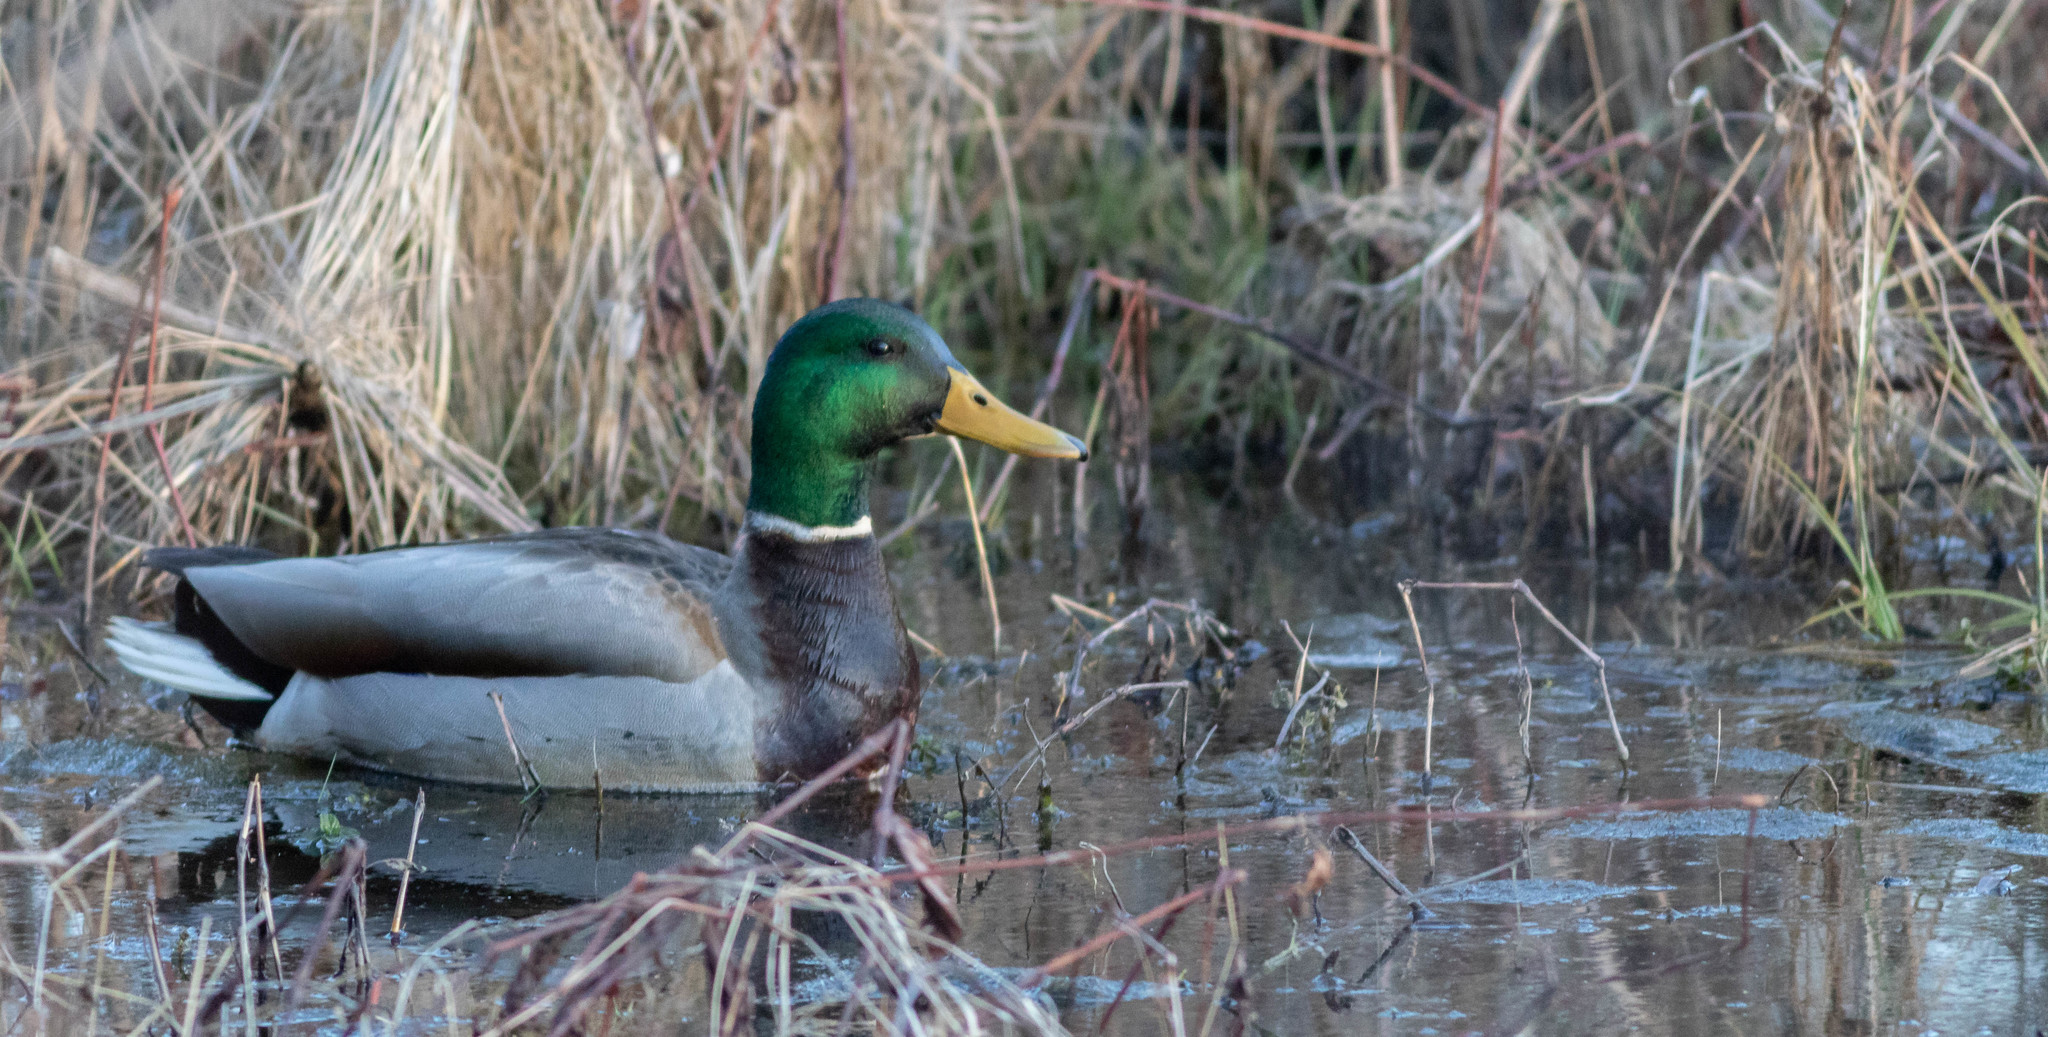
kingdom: Animalia
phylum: Chordata
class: Aves
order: Anseriformes
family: Anatidae
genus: Anas
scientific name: Anas platyrhynchos
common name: Mallard
